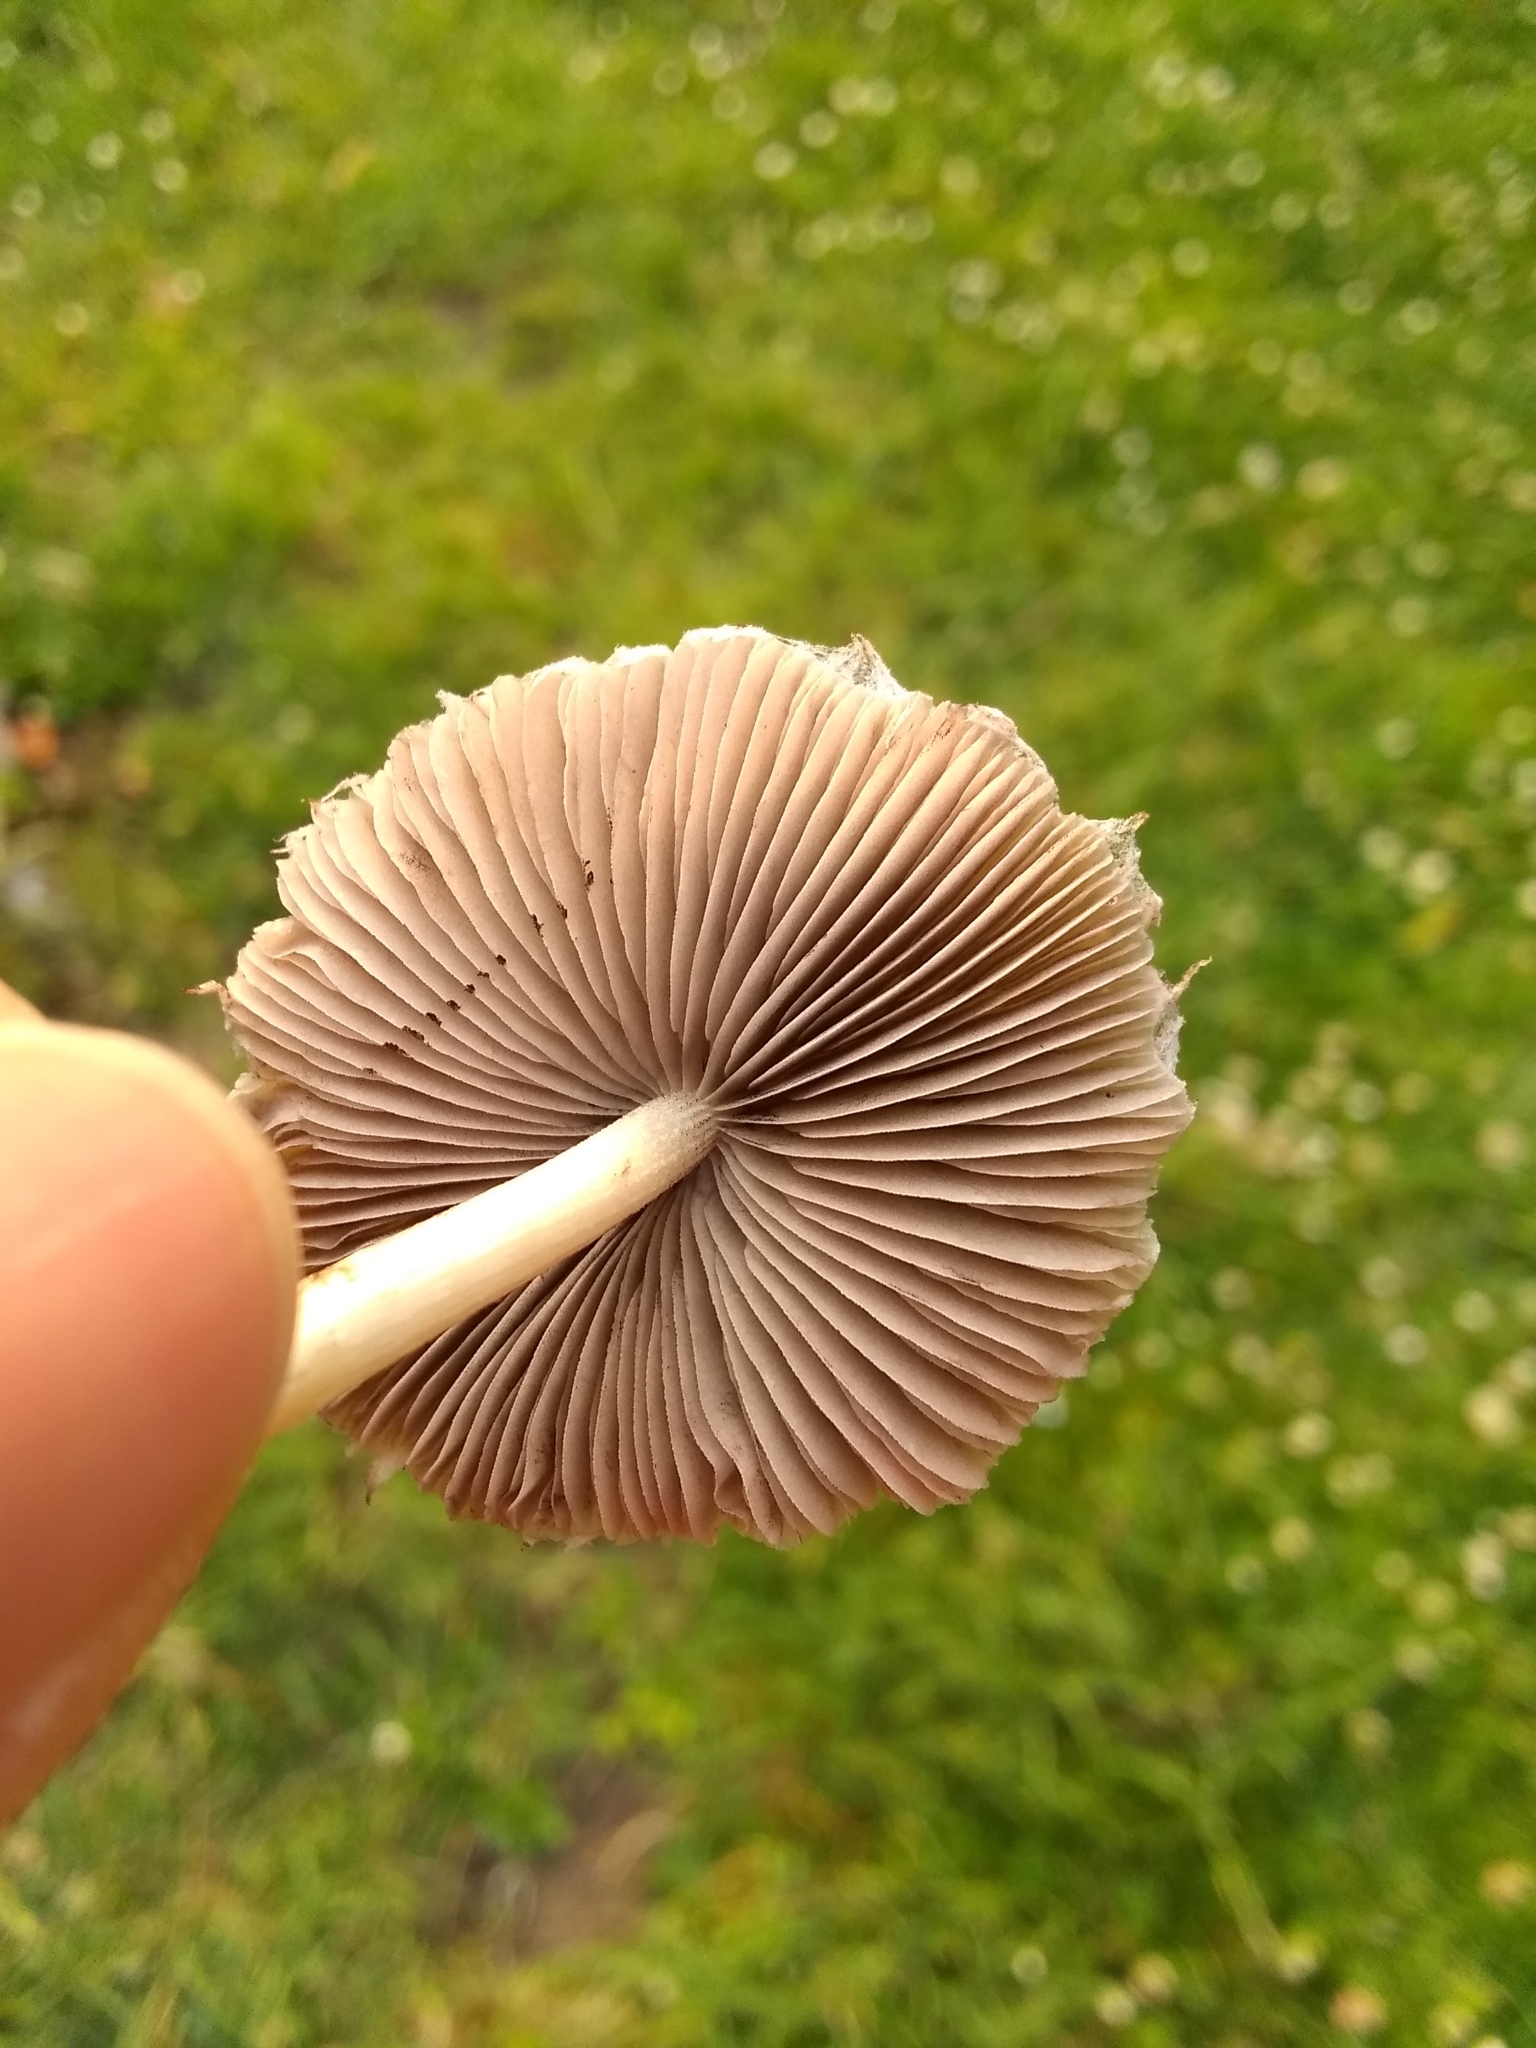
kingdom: Fungi
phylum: Basidiomycota
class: Agaricomycetes
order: Agaricales
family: Psathyrellaceae
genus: Candolleomyces
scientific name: Candolleomyces candolleanus
